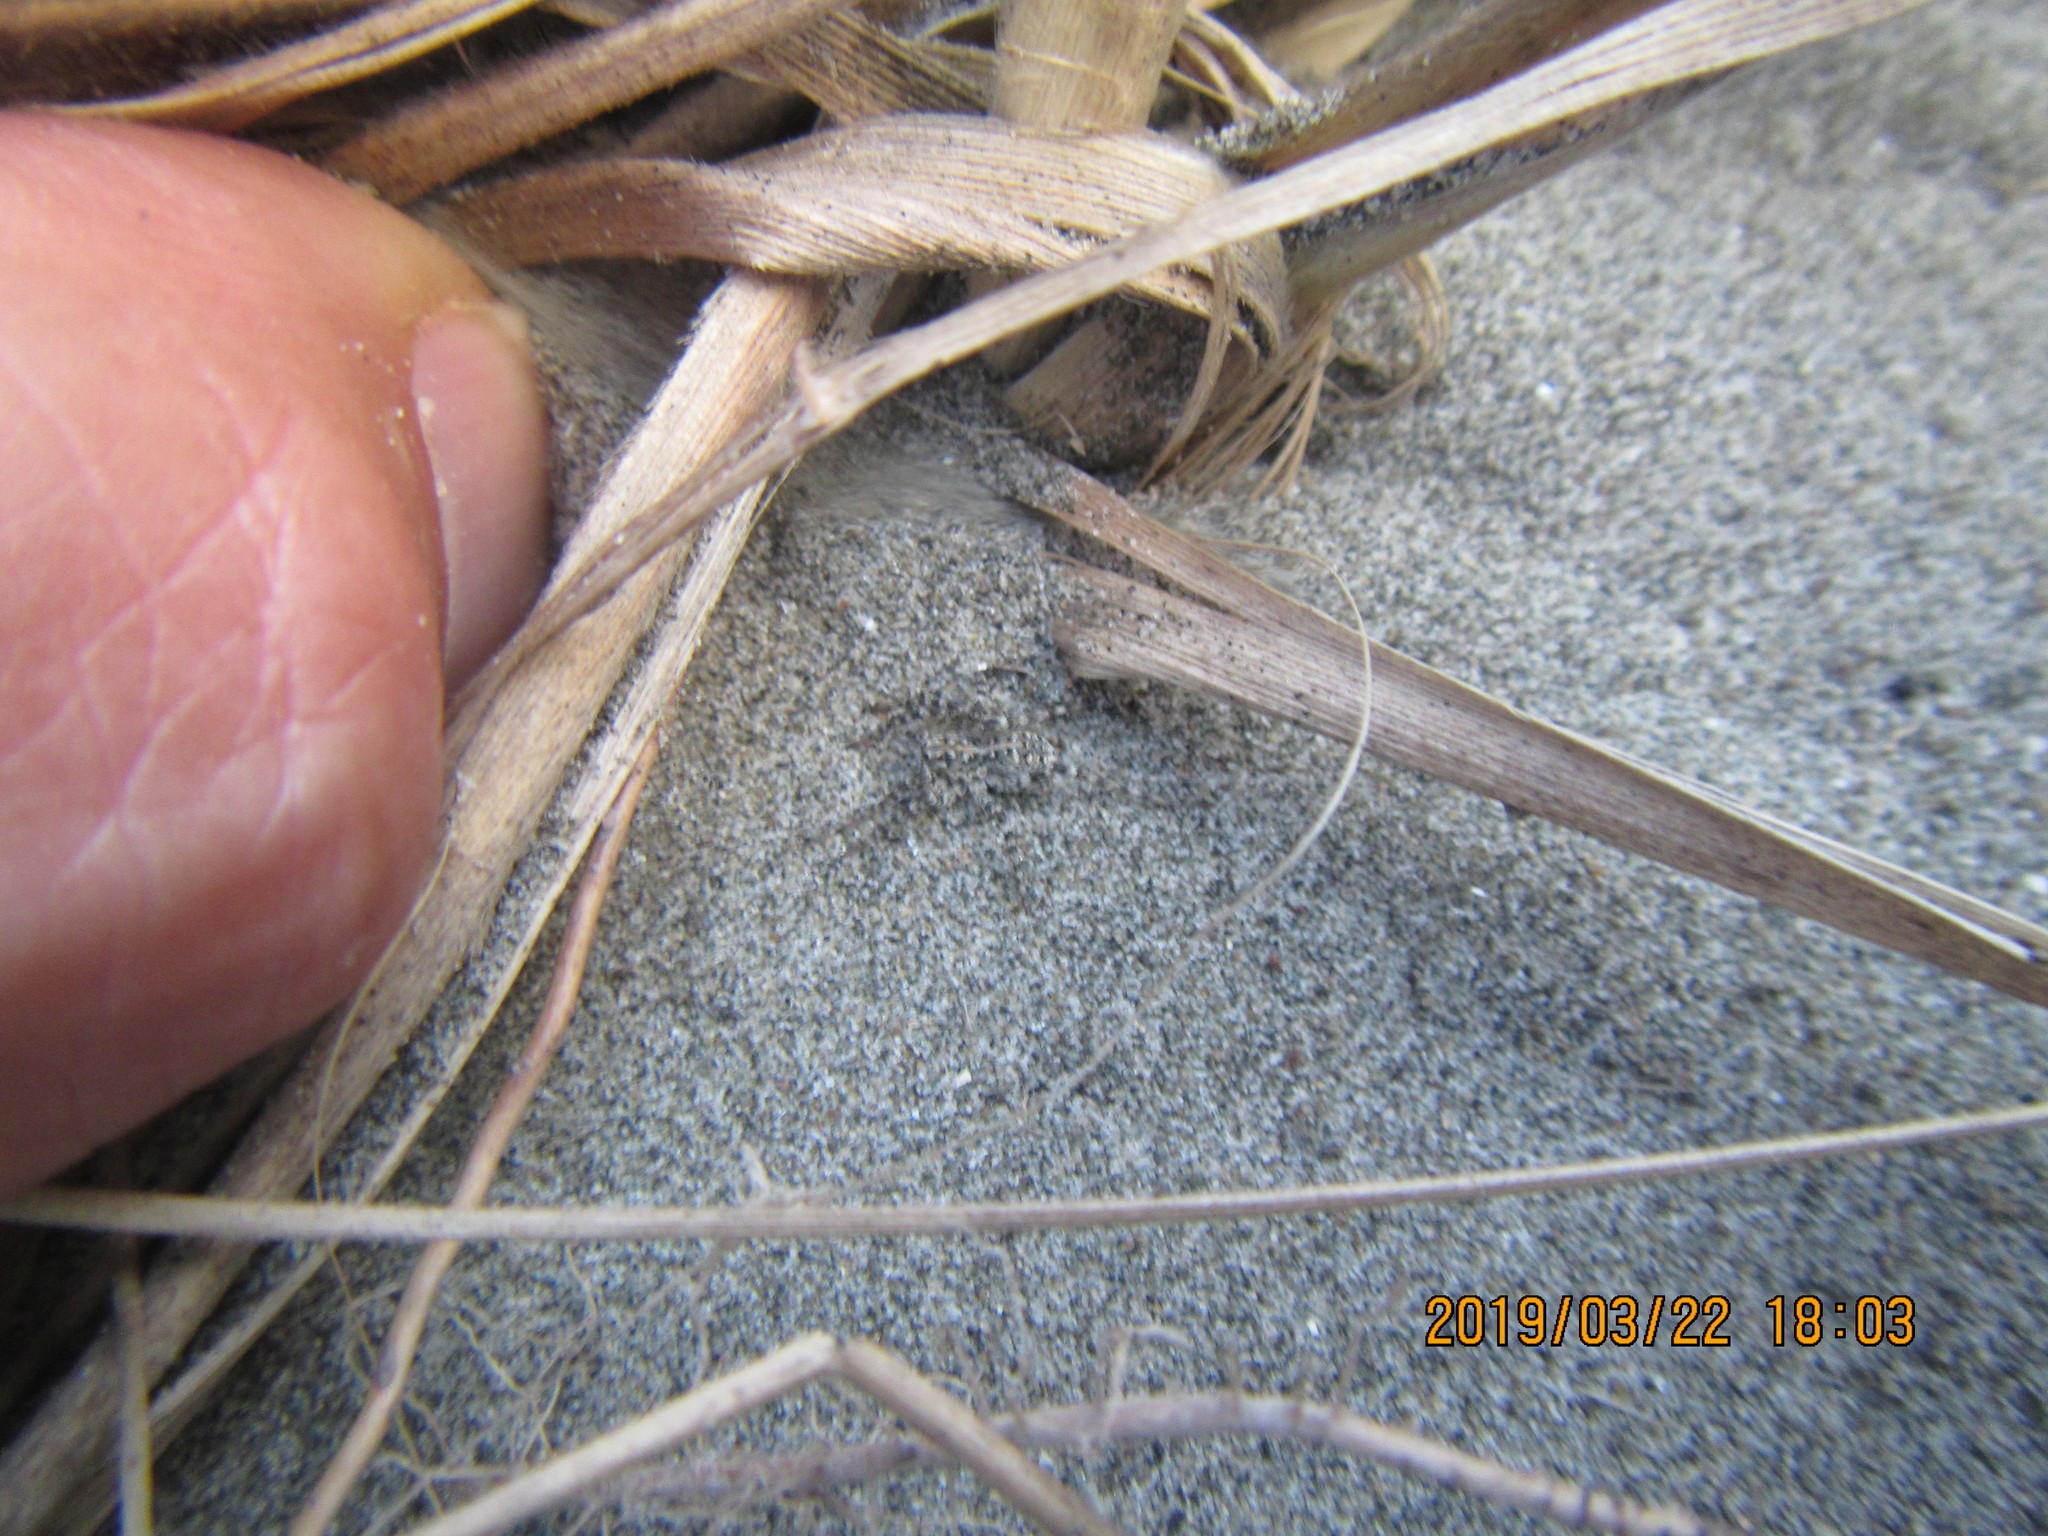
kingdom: Animalia
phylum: Arthropoda
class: Arachnida
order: Araneae
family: Lycosidae
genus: Anoteropsis
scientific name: Anoteropsis litoralis
